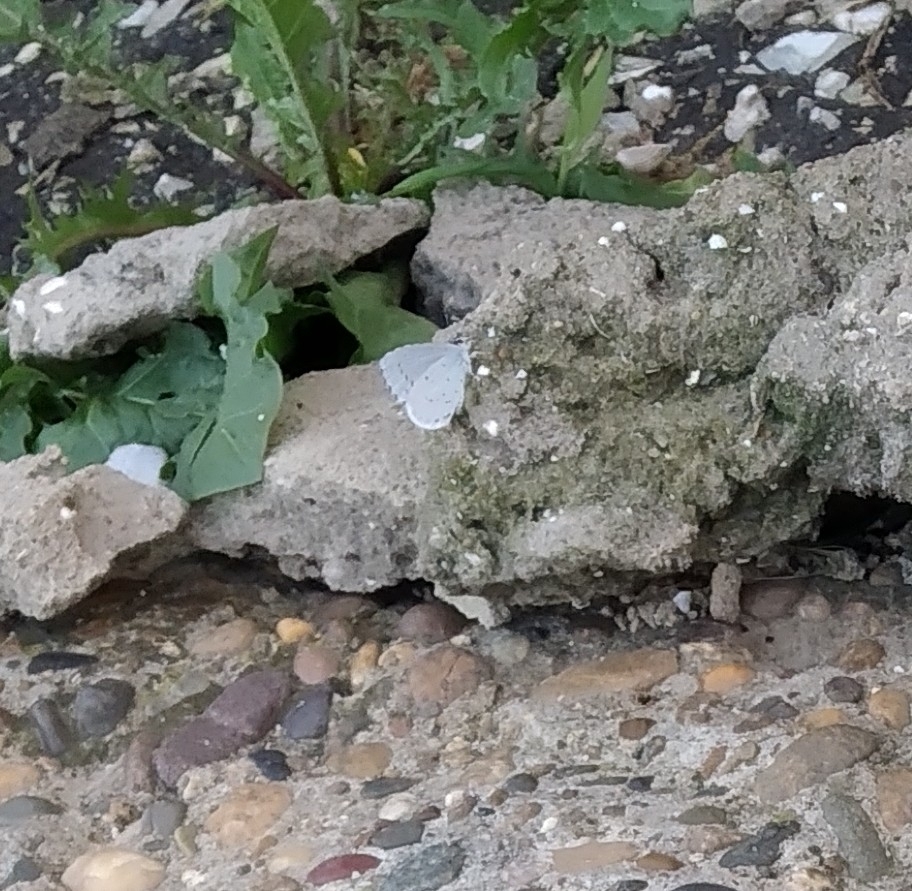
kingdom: Animalia
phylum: Arthropoda
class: Insecta
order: Lepidoptera
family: Lycaenidae
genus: Celastrina
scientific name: Celastrina argiolus
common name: Holly blue
